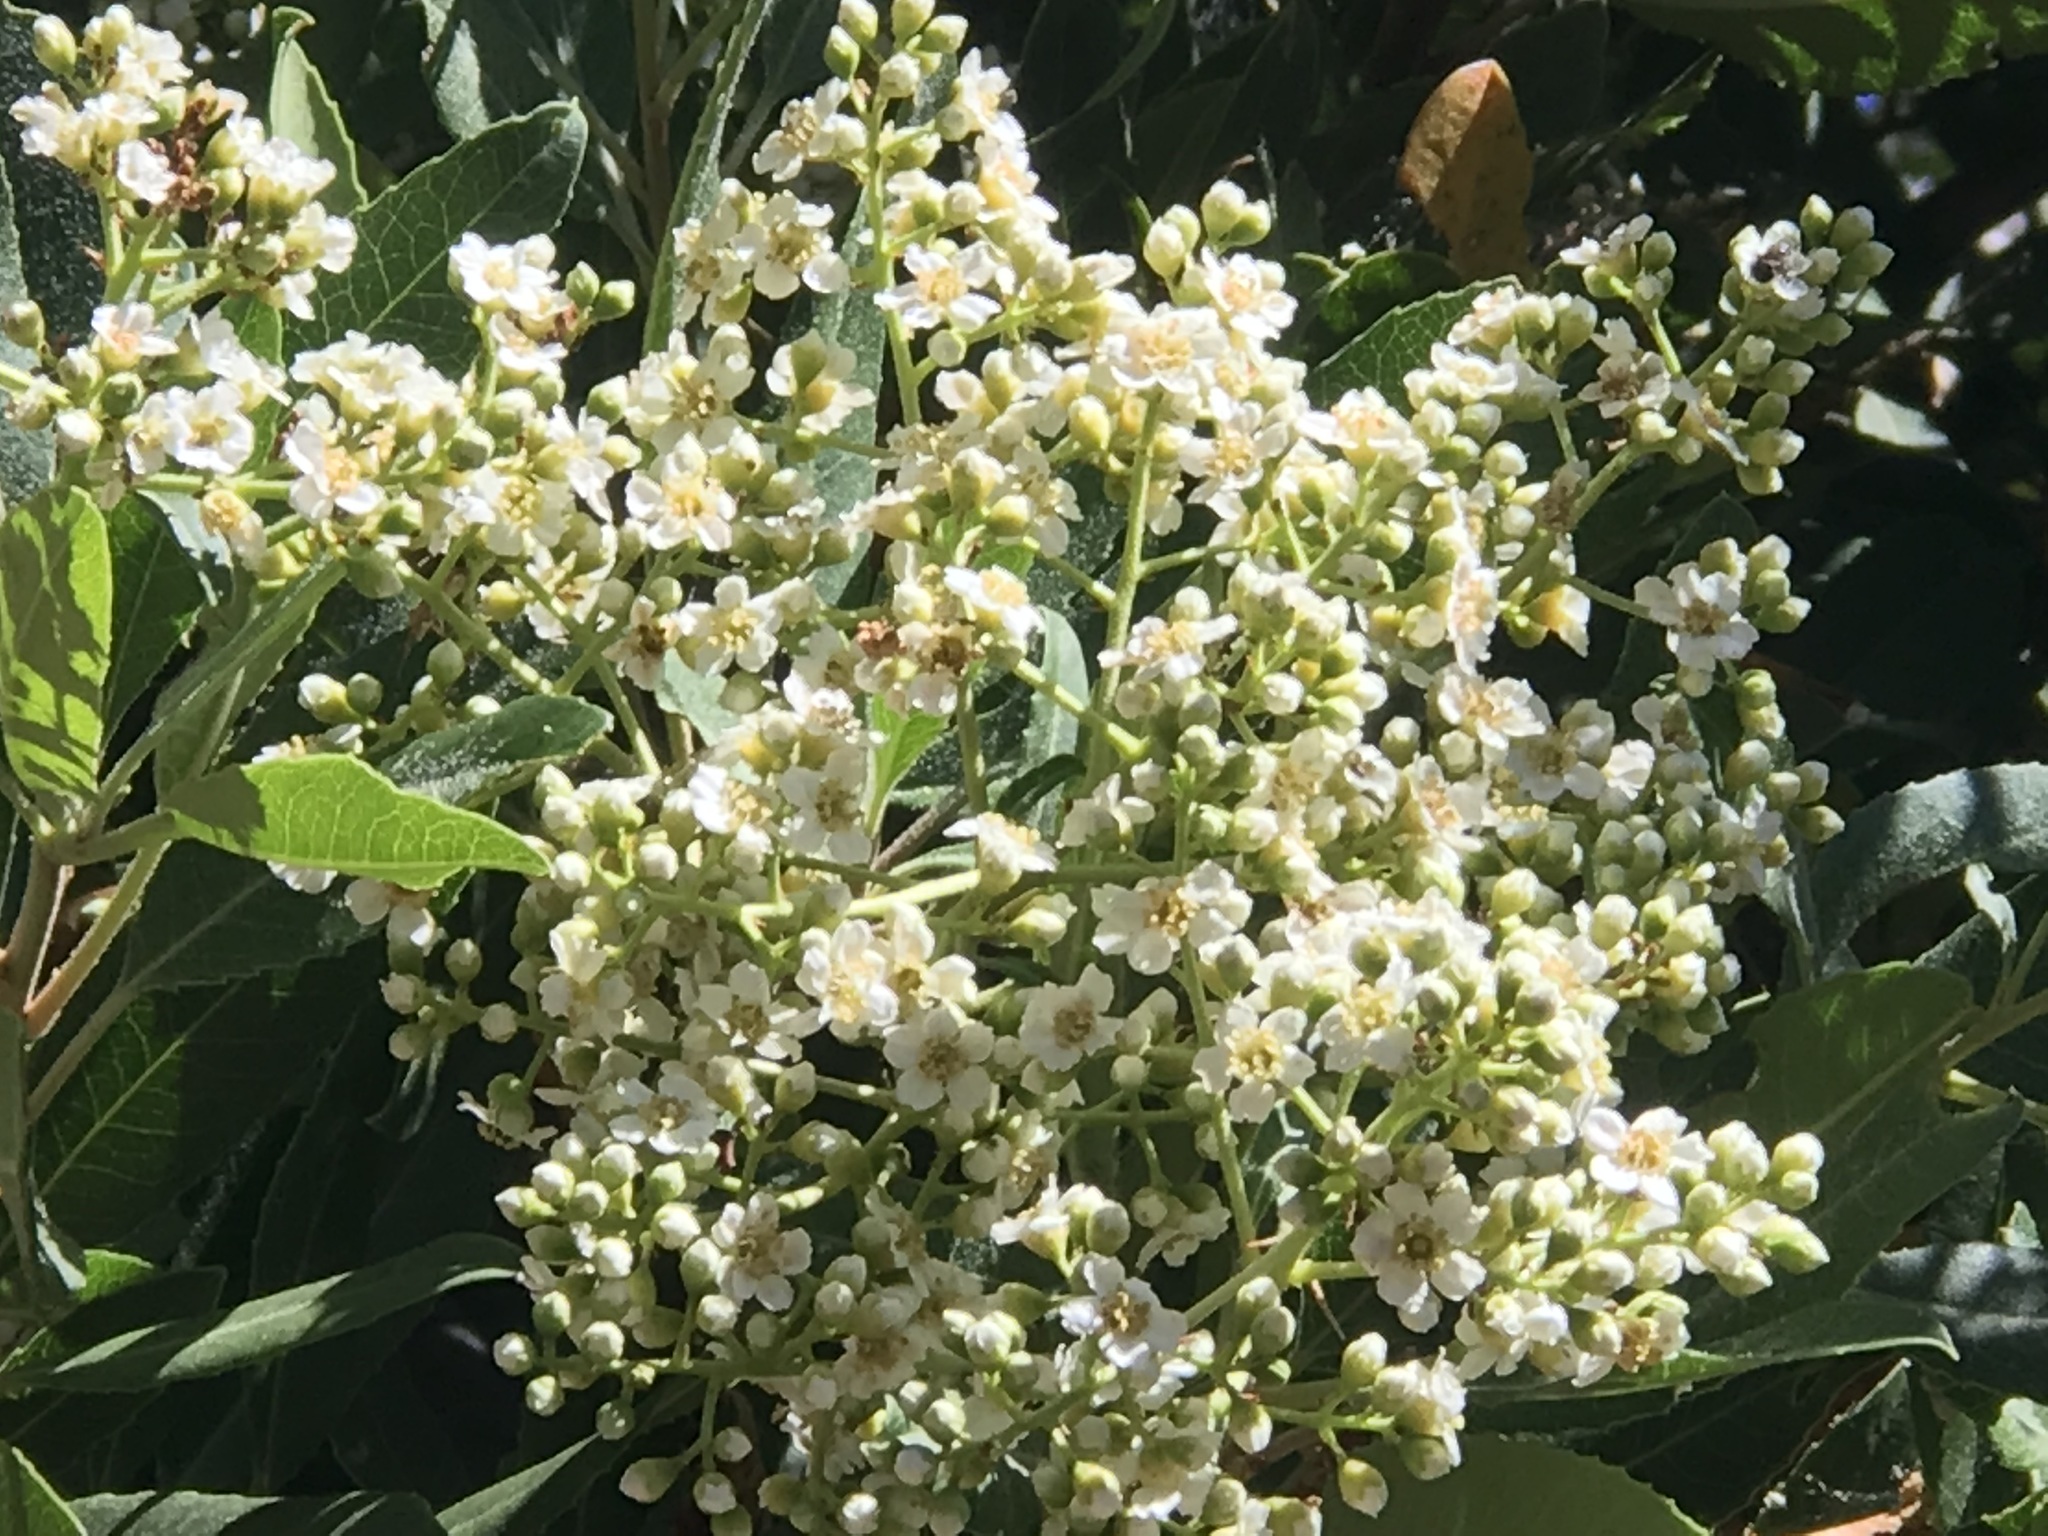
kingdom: Plantae
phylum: Tracheophyta
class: Magnoliopsida
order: Rosales
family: Rosaceae
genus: Heteromeles
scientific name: Heteromeles arbutifolia
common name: California-holly
